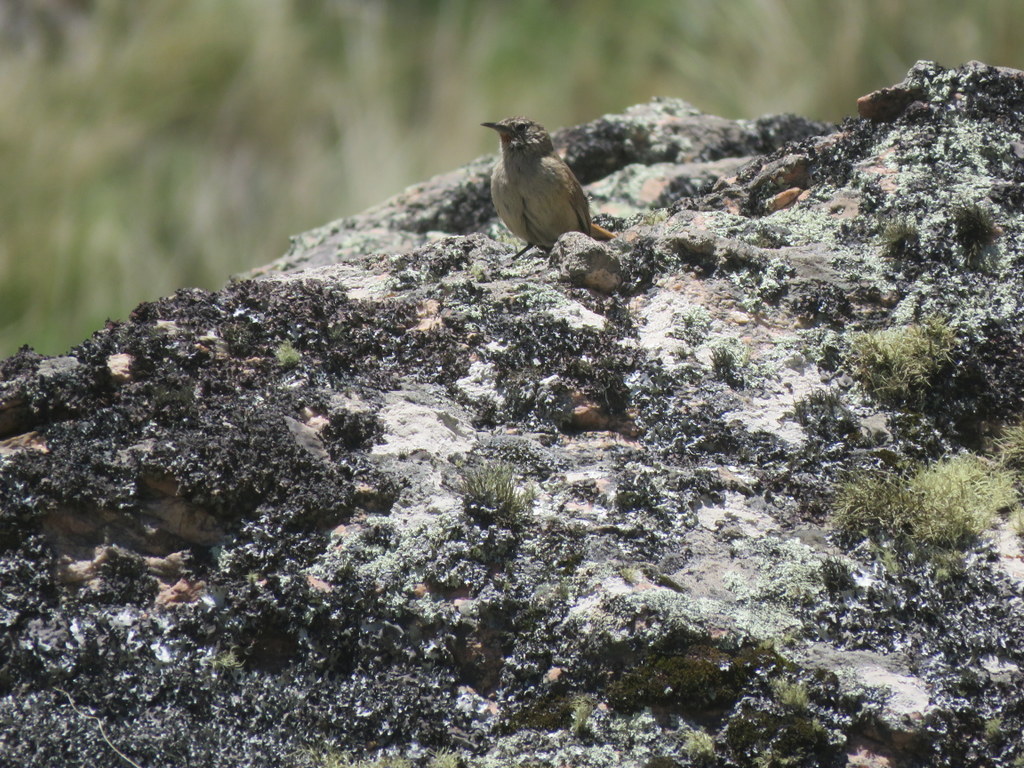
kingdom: Animalia
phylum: Chordata
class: Aves
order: Passeriformes
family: Furnariidae
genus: Asthenes
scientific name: Asthenes modesta
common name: Cordilleran canastero
